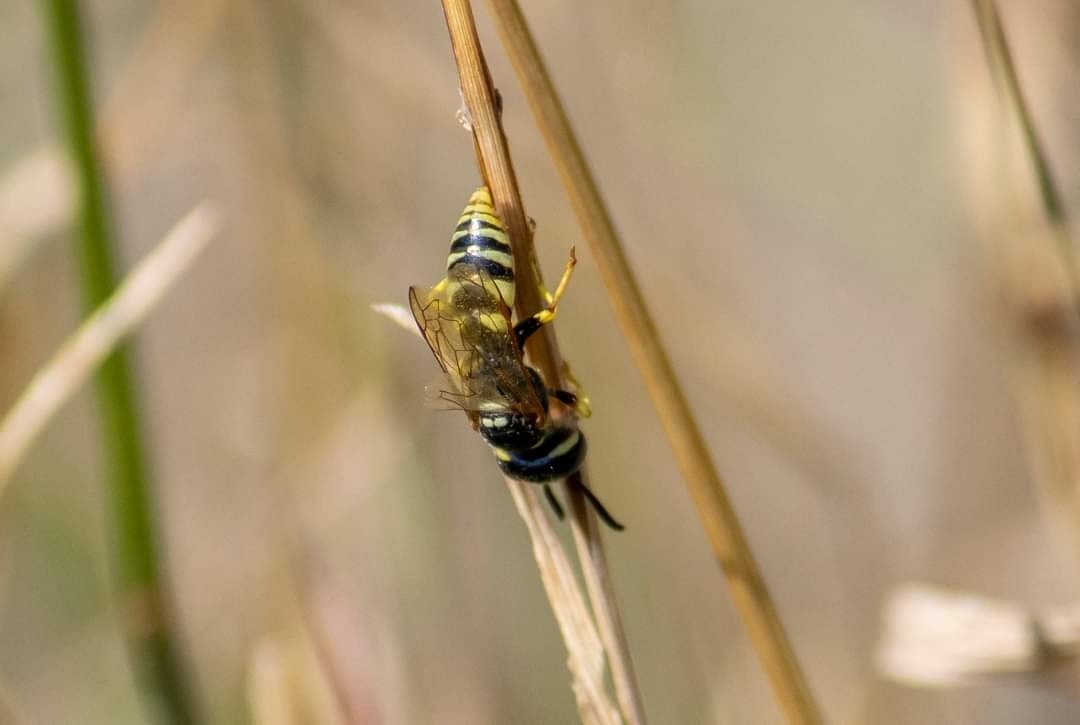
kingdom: Animalia
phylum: Arthropoda
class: Insecta
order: Hymenoptera
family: Crabronidae
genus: Philanthus
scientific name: Philanthus triangulum
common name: Bee wolf
